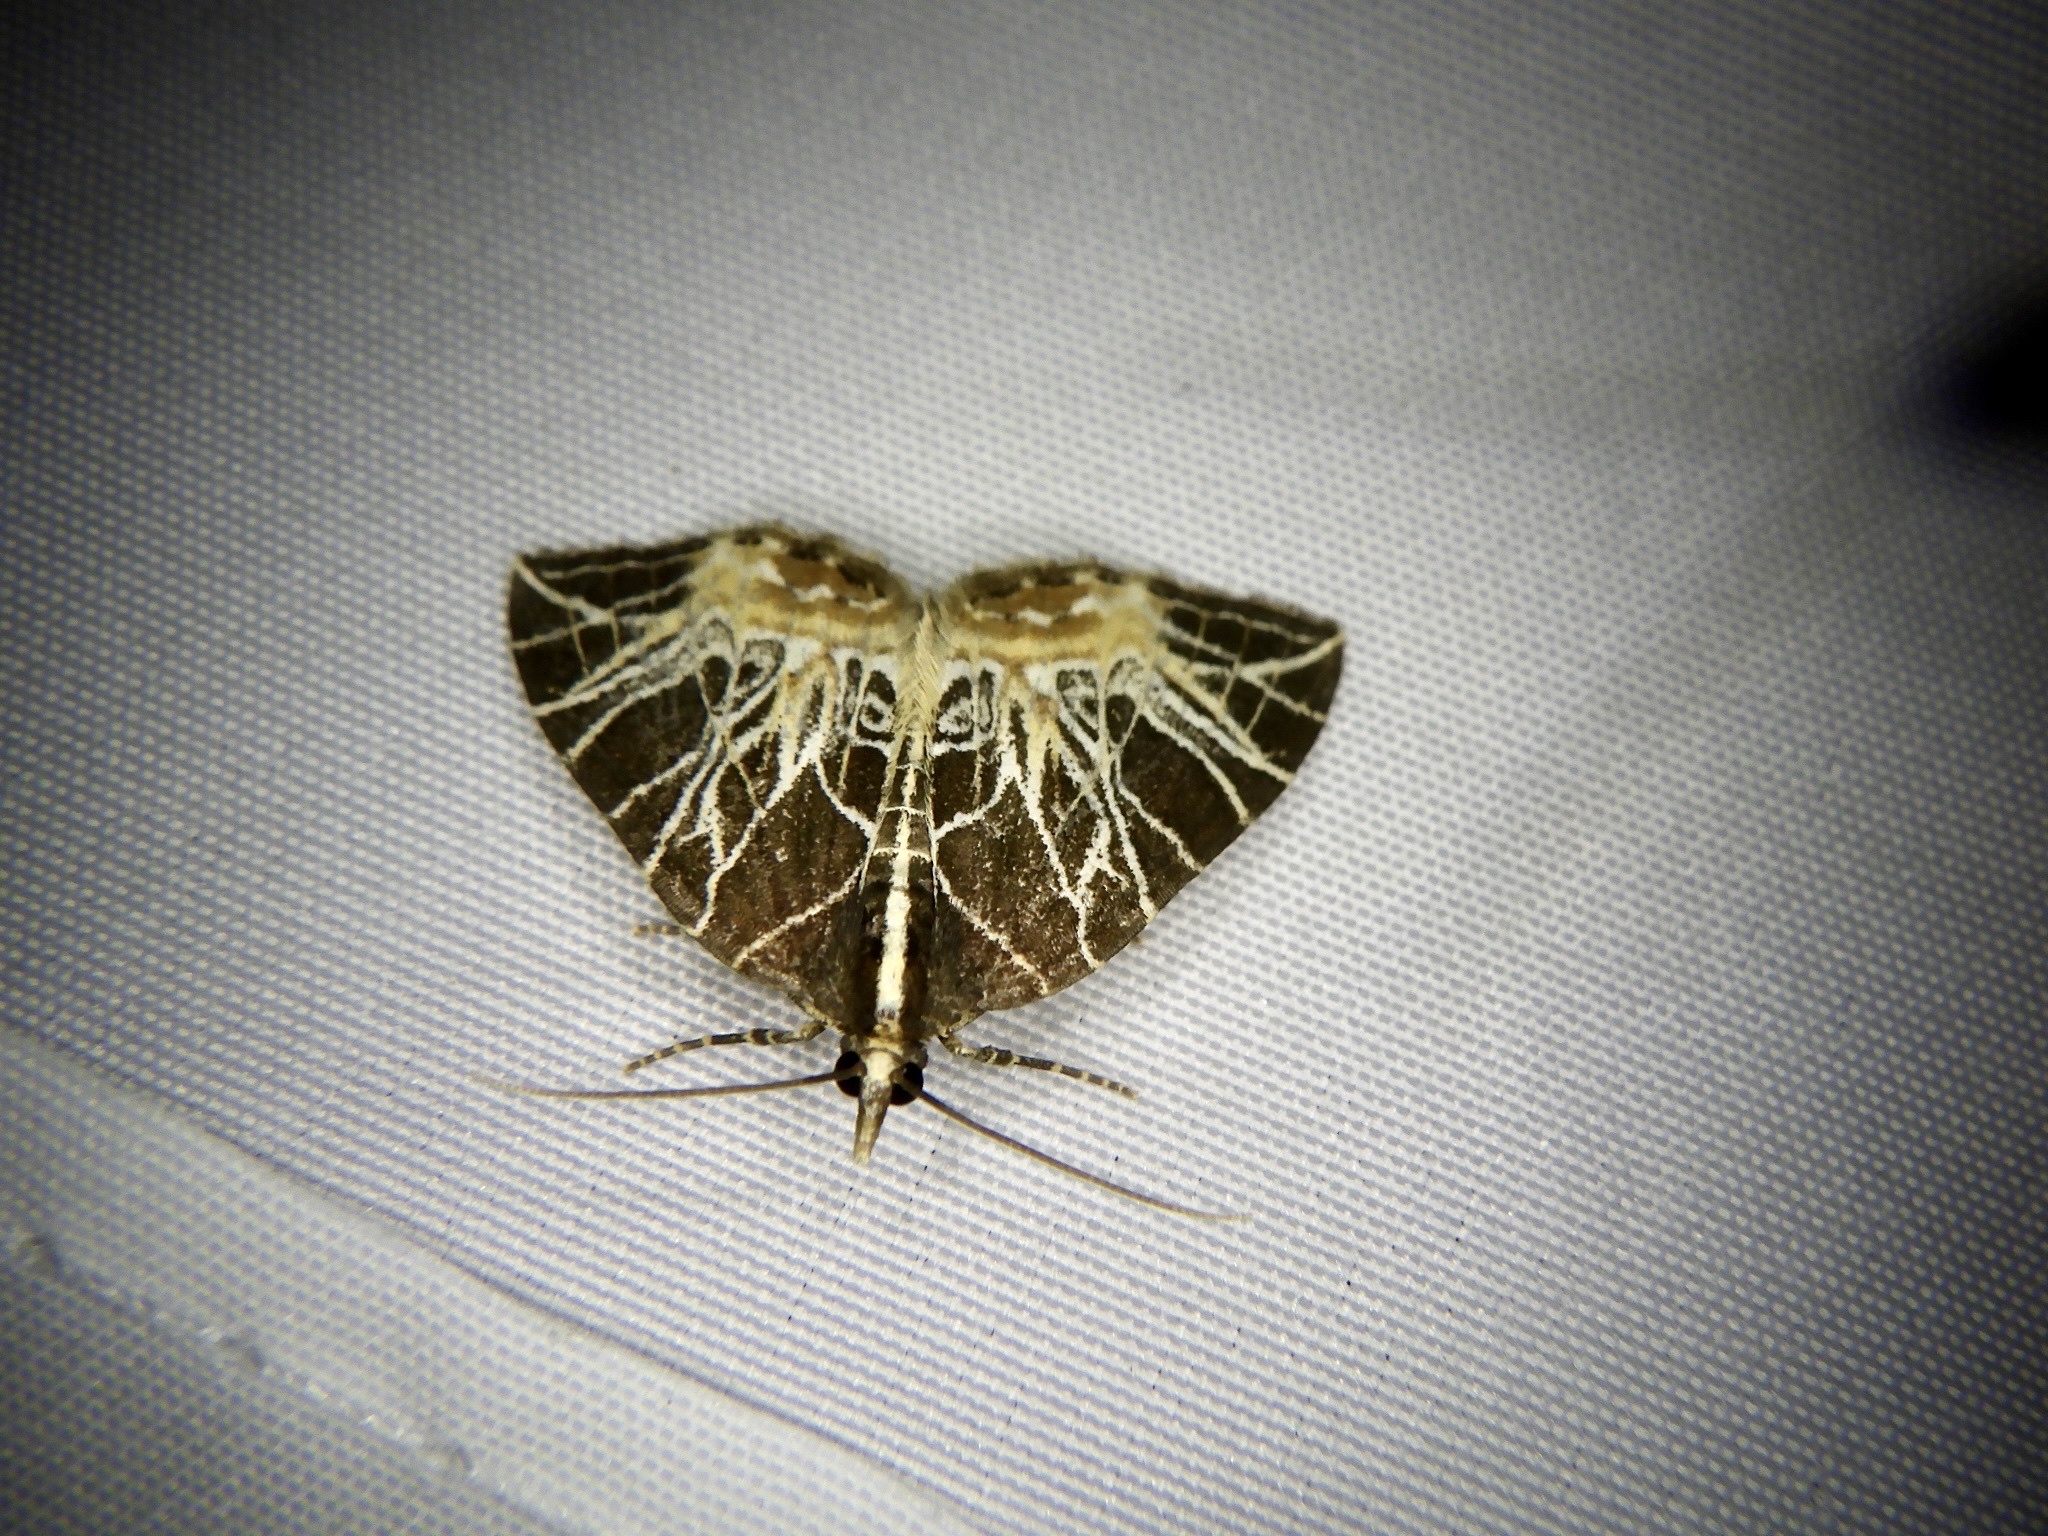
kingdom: Animalia
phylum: Arthropoda
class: Insecta
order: Lepidoptera
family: Geometridae
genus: Evecliptopera
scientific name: Evecliptopera illitata
